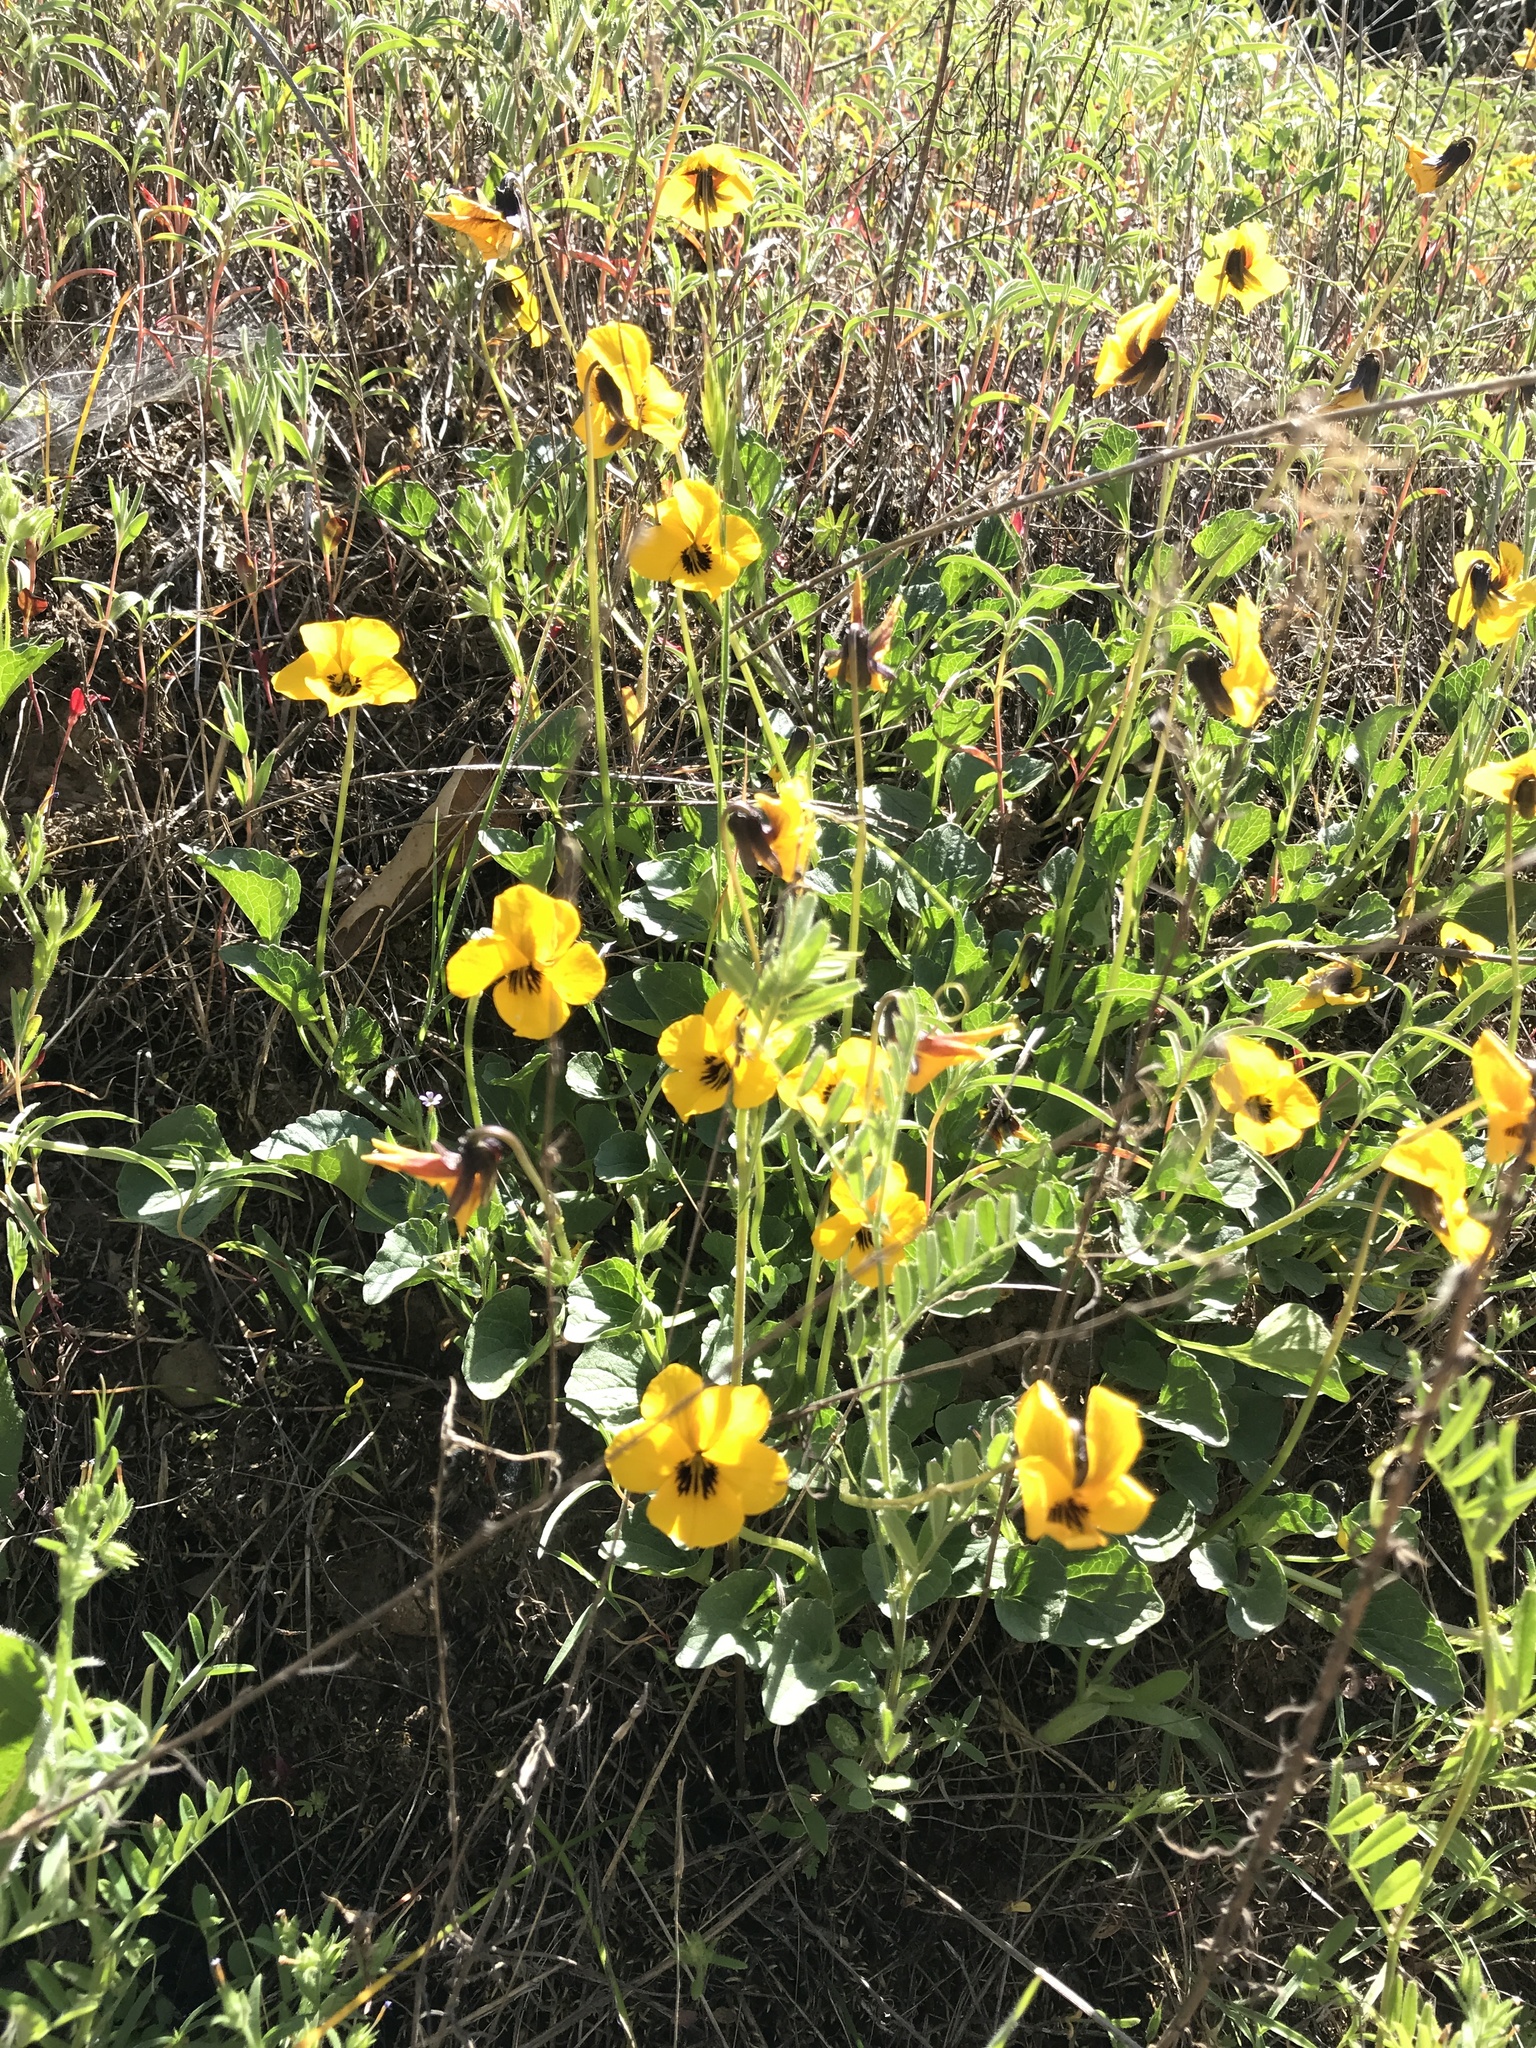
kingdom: Plantae
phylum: Tracheophyta
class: Magnoliopsida
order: Malpighiales
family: Violaceae
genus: Viola
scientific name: Viola pedunculata
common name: California golden violet
